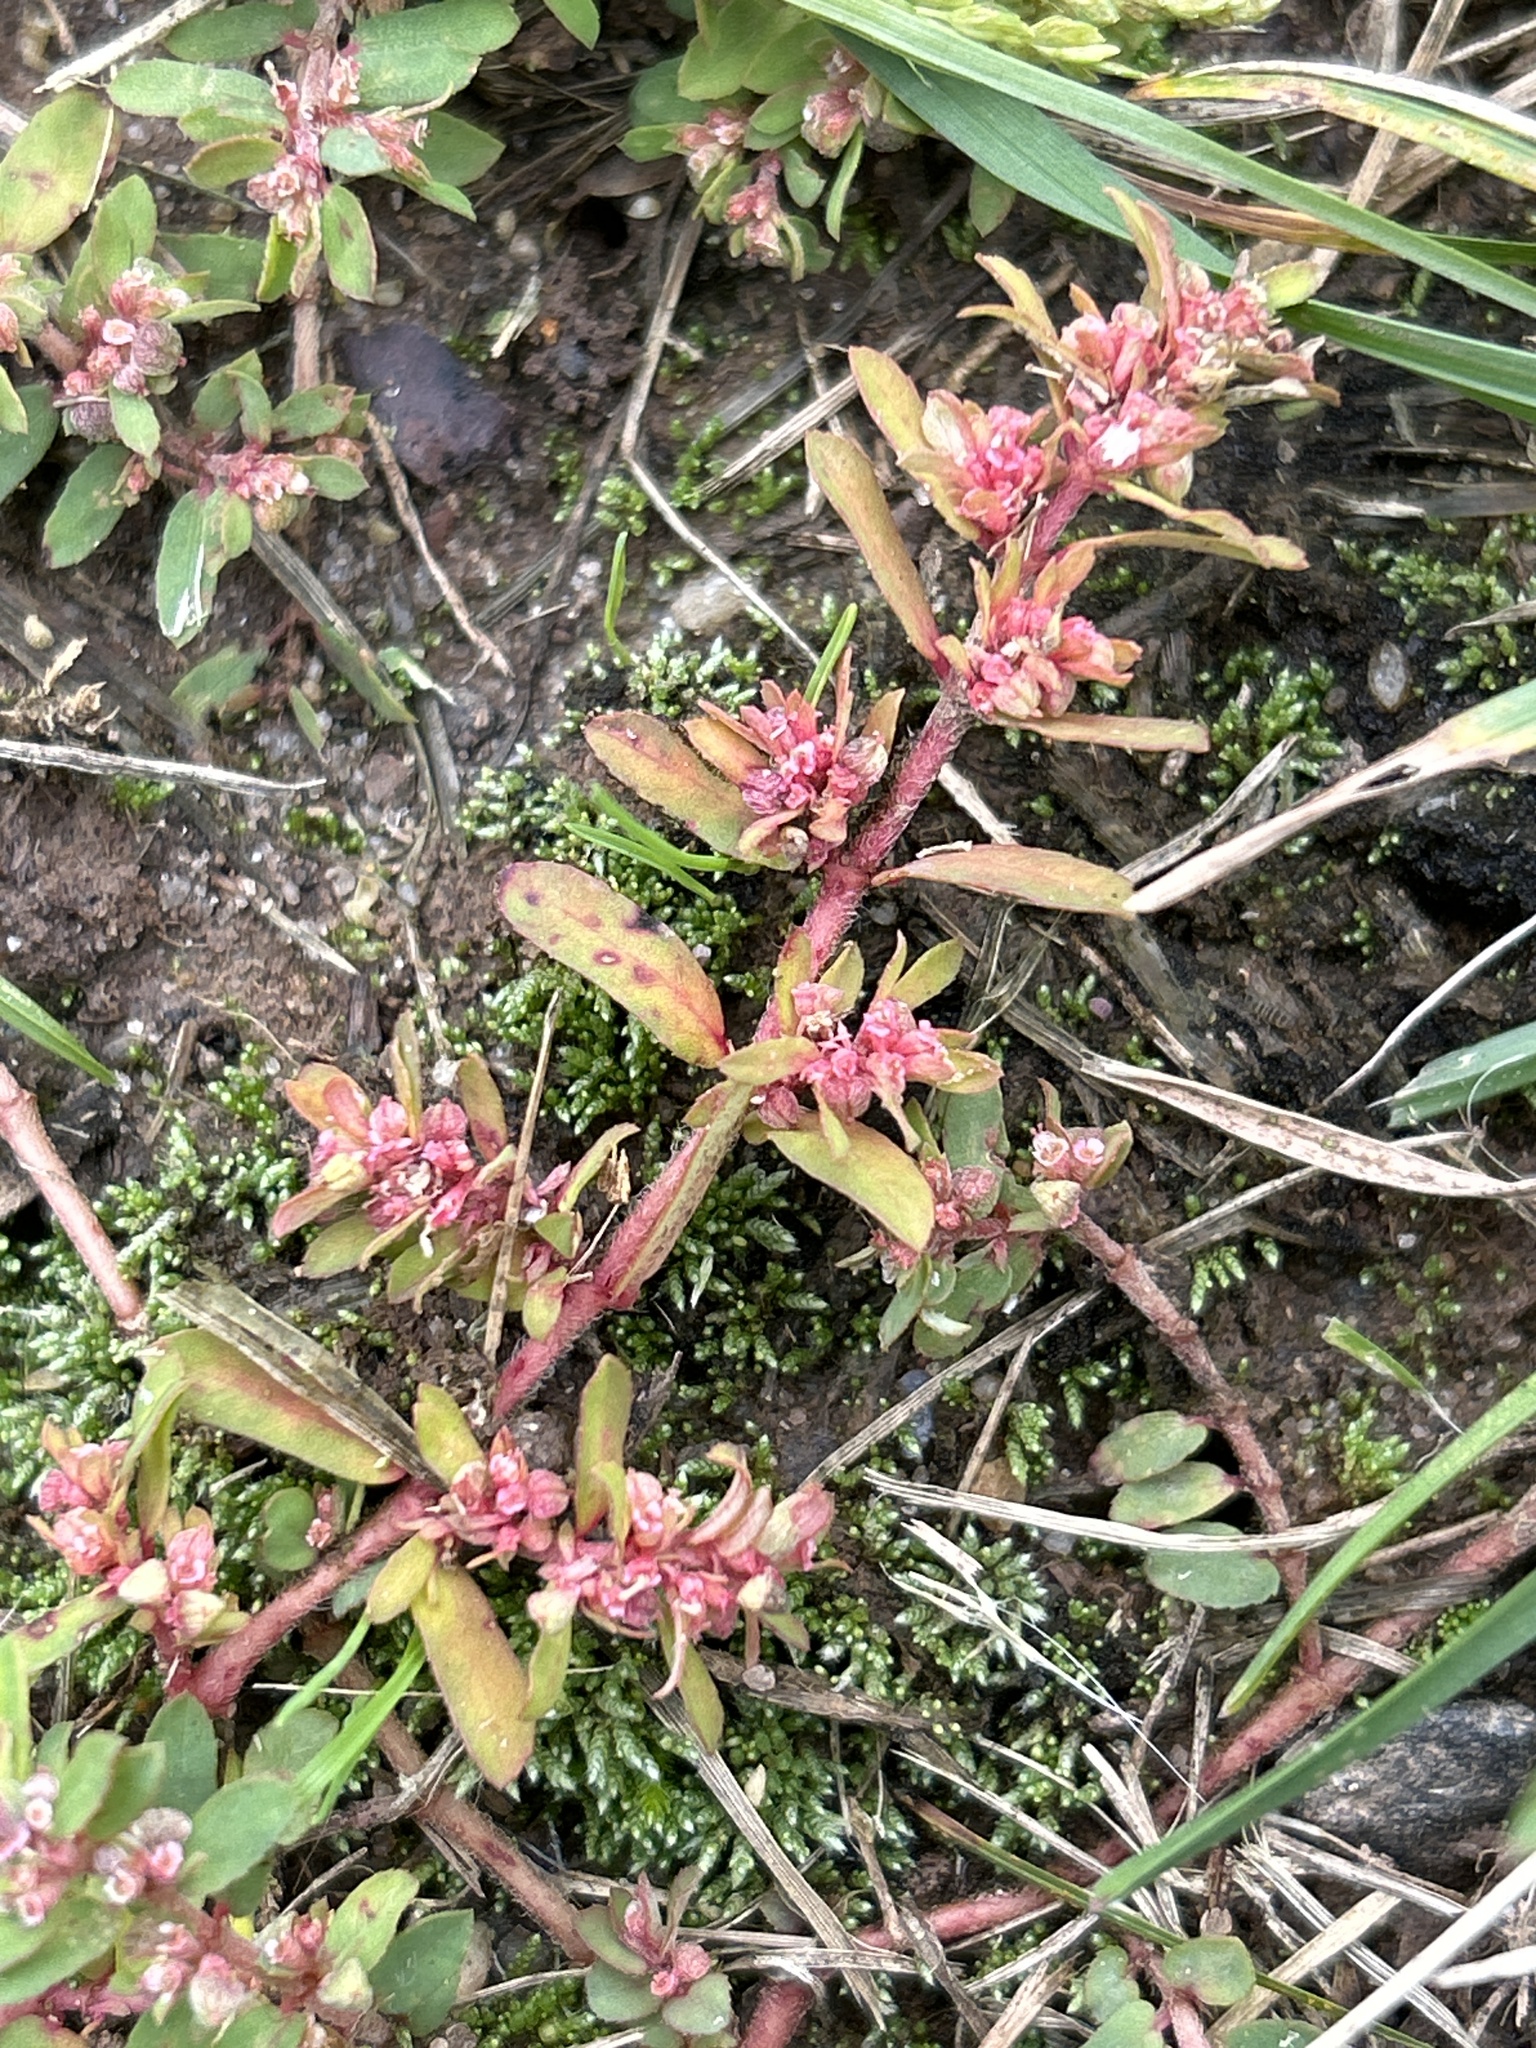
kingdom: Plantae
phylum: Tracheophyta
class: Magnoliopsida
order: Malpighiales
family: Euphorbiaceae
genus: Euphorbia
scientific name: Euphorbia maculata
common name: Spotted spurge
